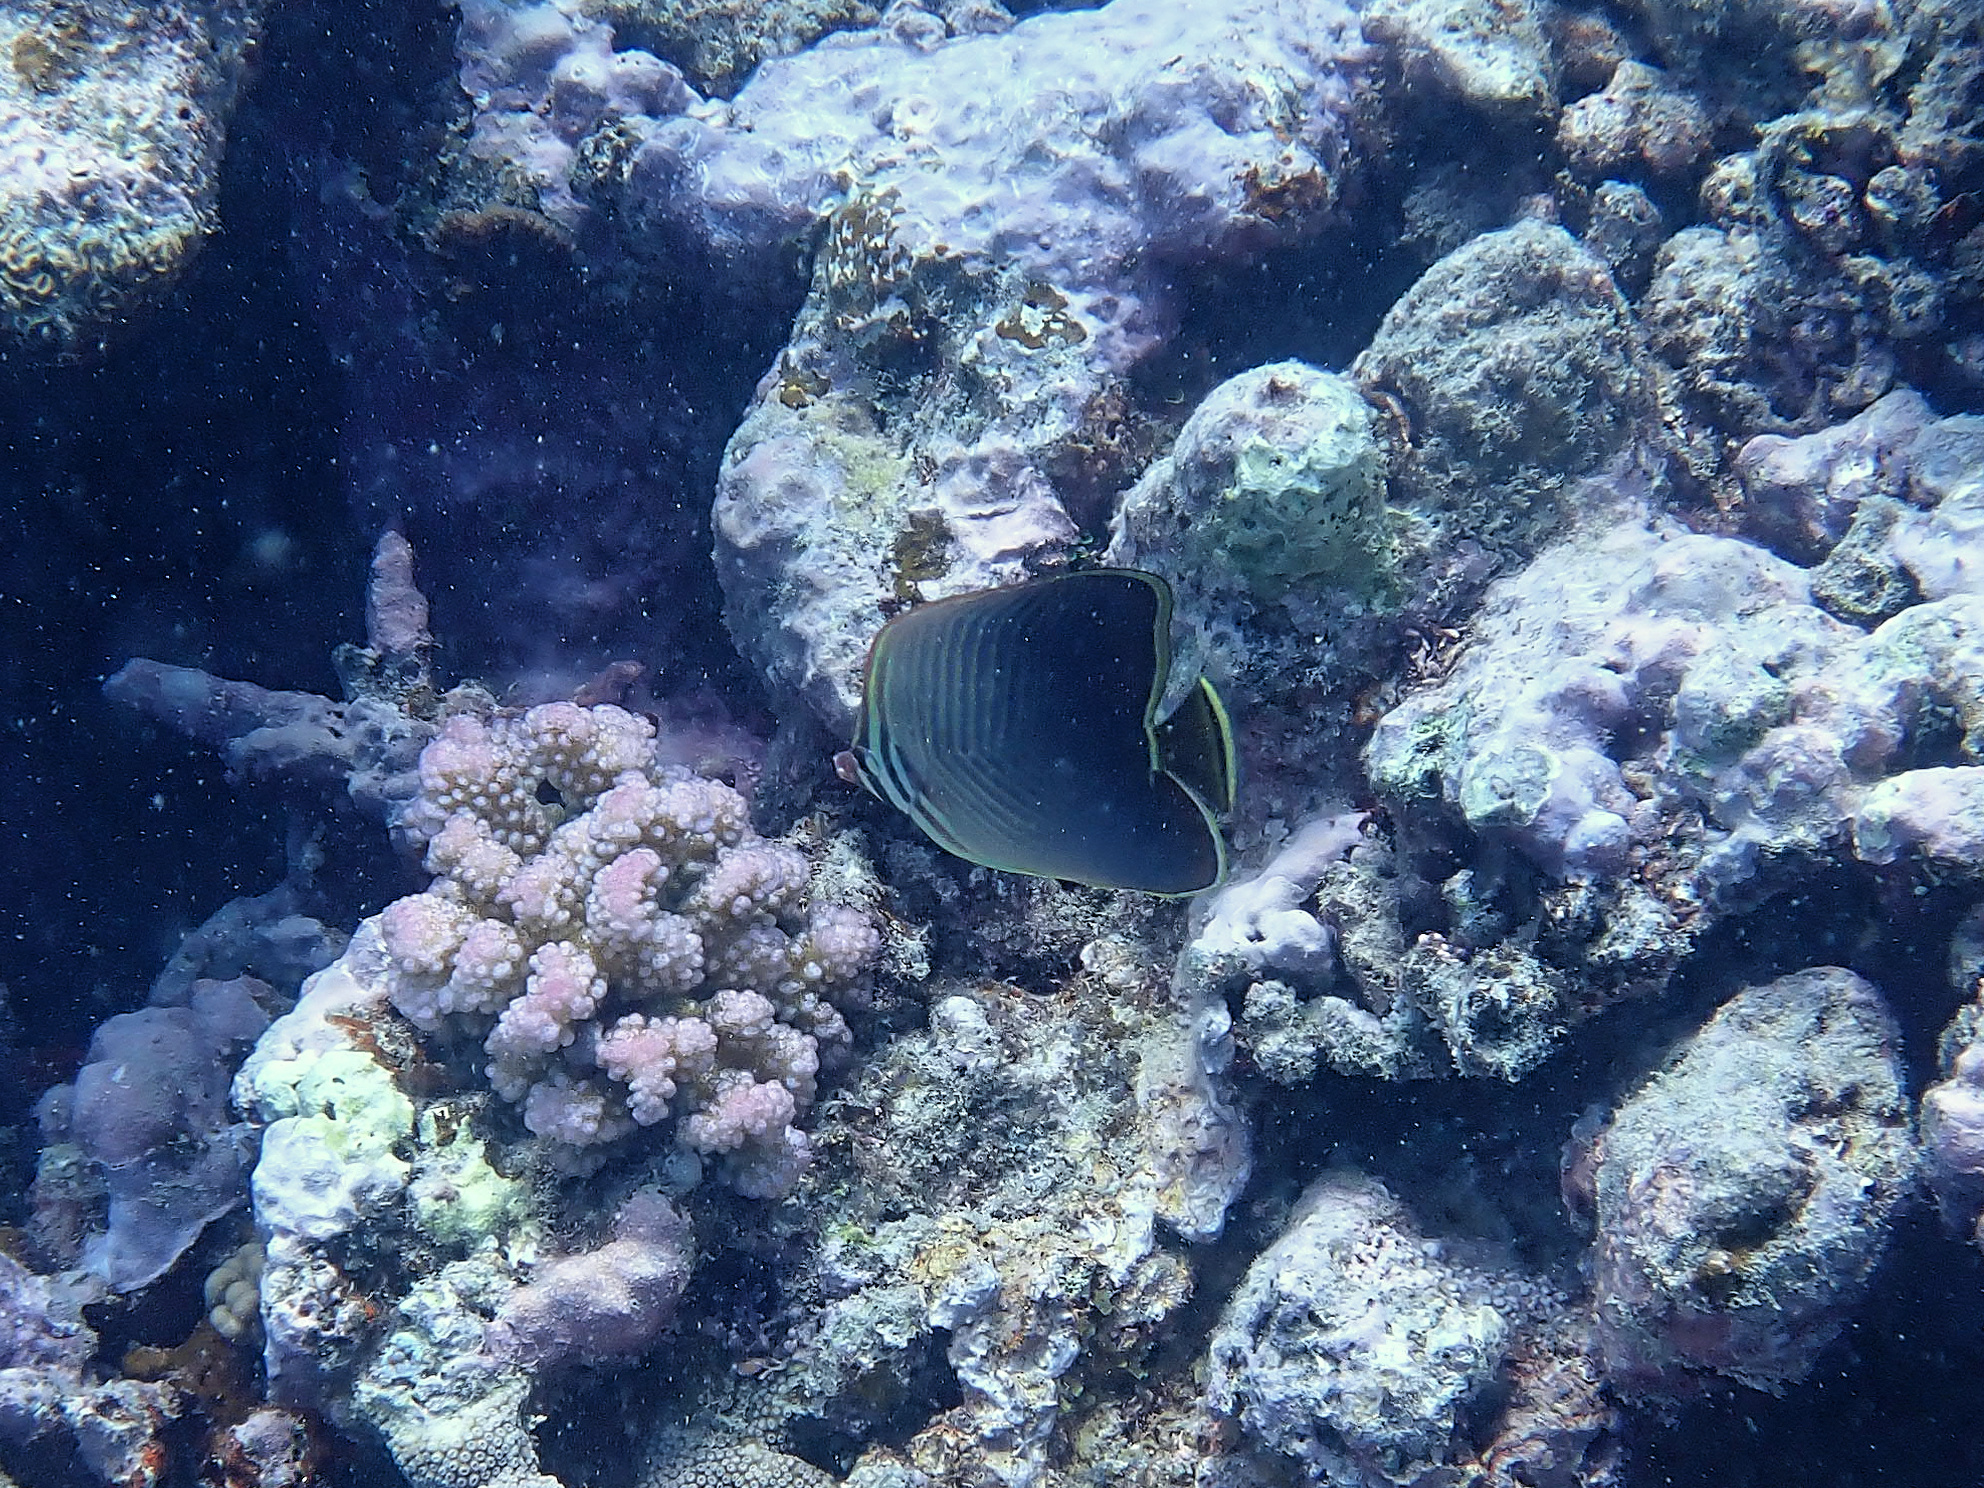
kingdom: Animalia
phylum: Chordata
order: Perciformes
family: Chaetodontidae
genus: Chaetodon
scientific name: Chaetodon baronessa
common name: Triangular butterflyfish
